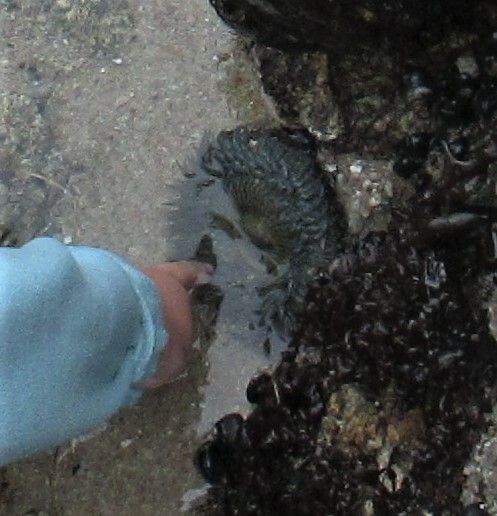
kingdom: Animalia
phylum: Cnidaria
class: Anthozoa
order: Actiniaria
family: Actiniidae
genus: Anthopleura
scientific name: Anthopleura sola
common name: Sun anemone
